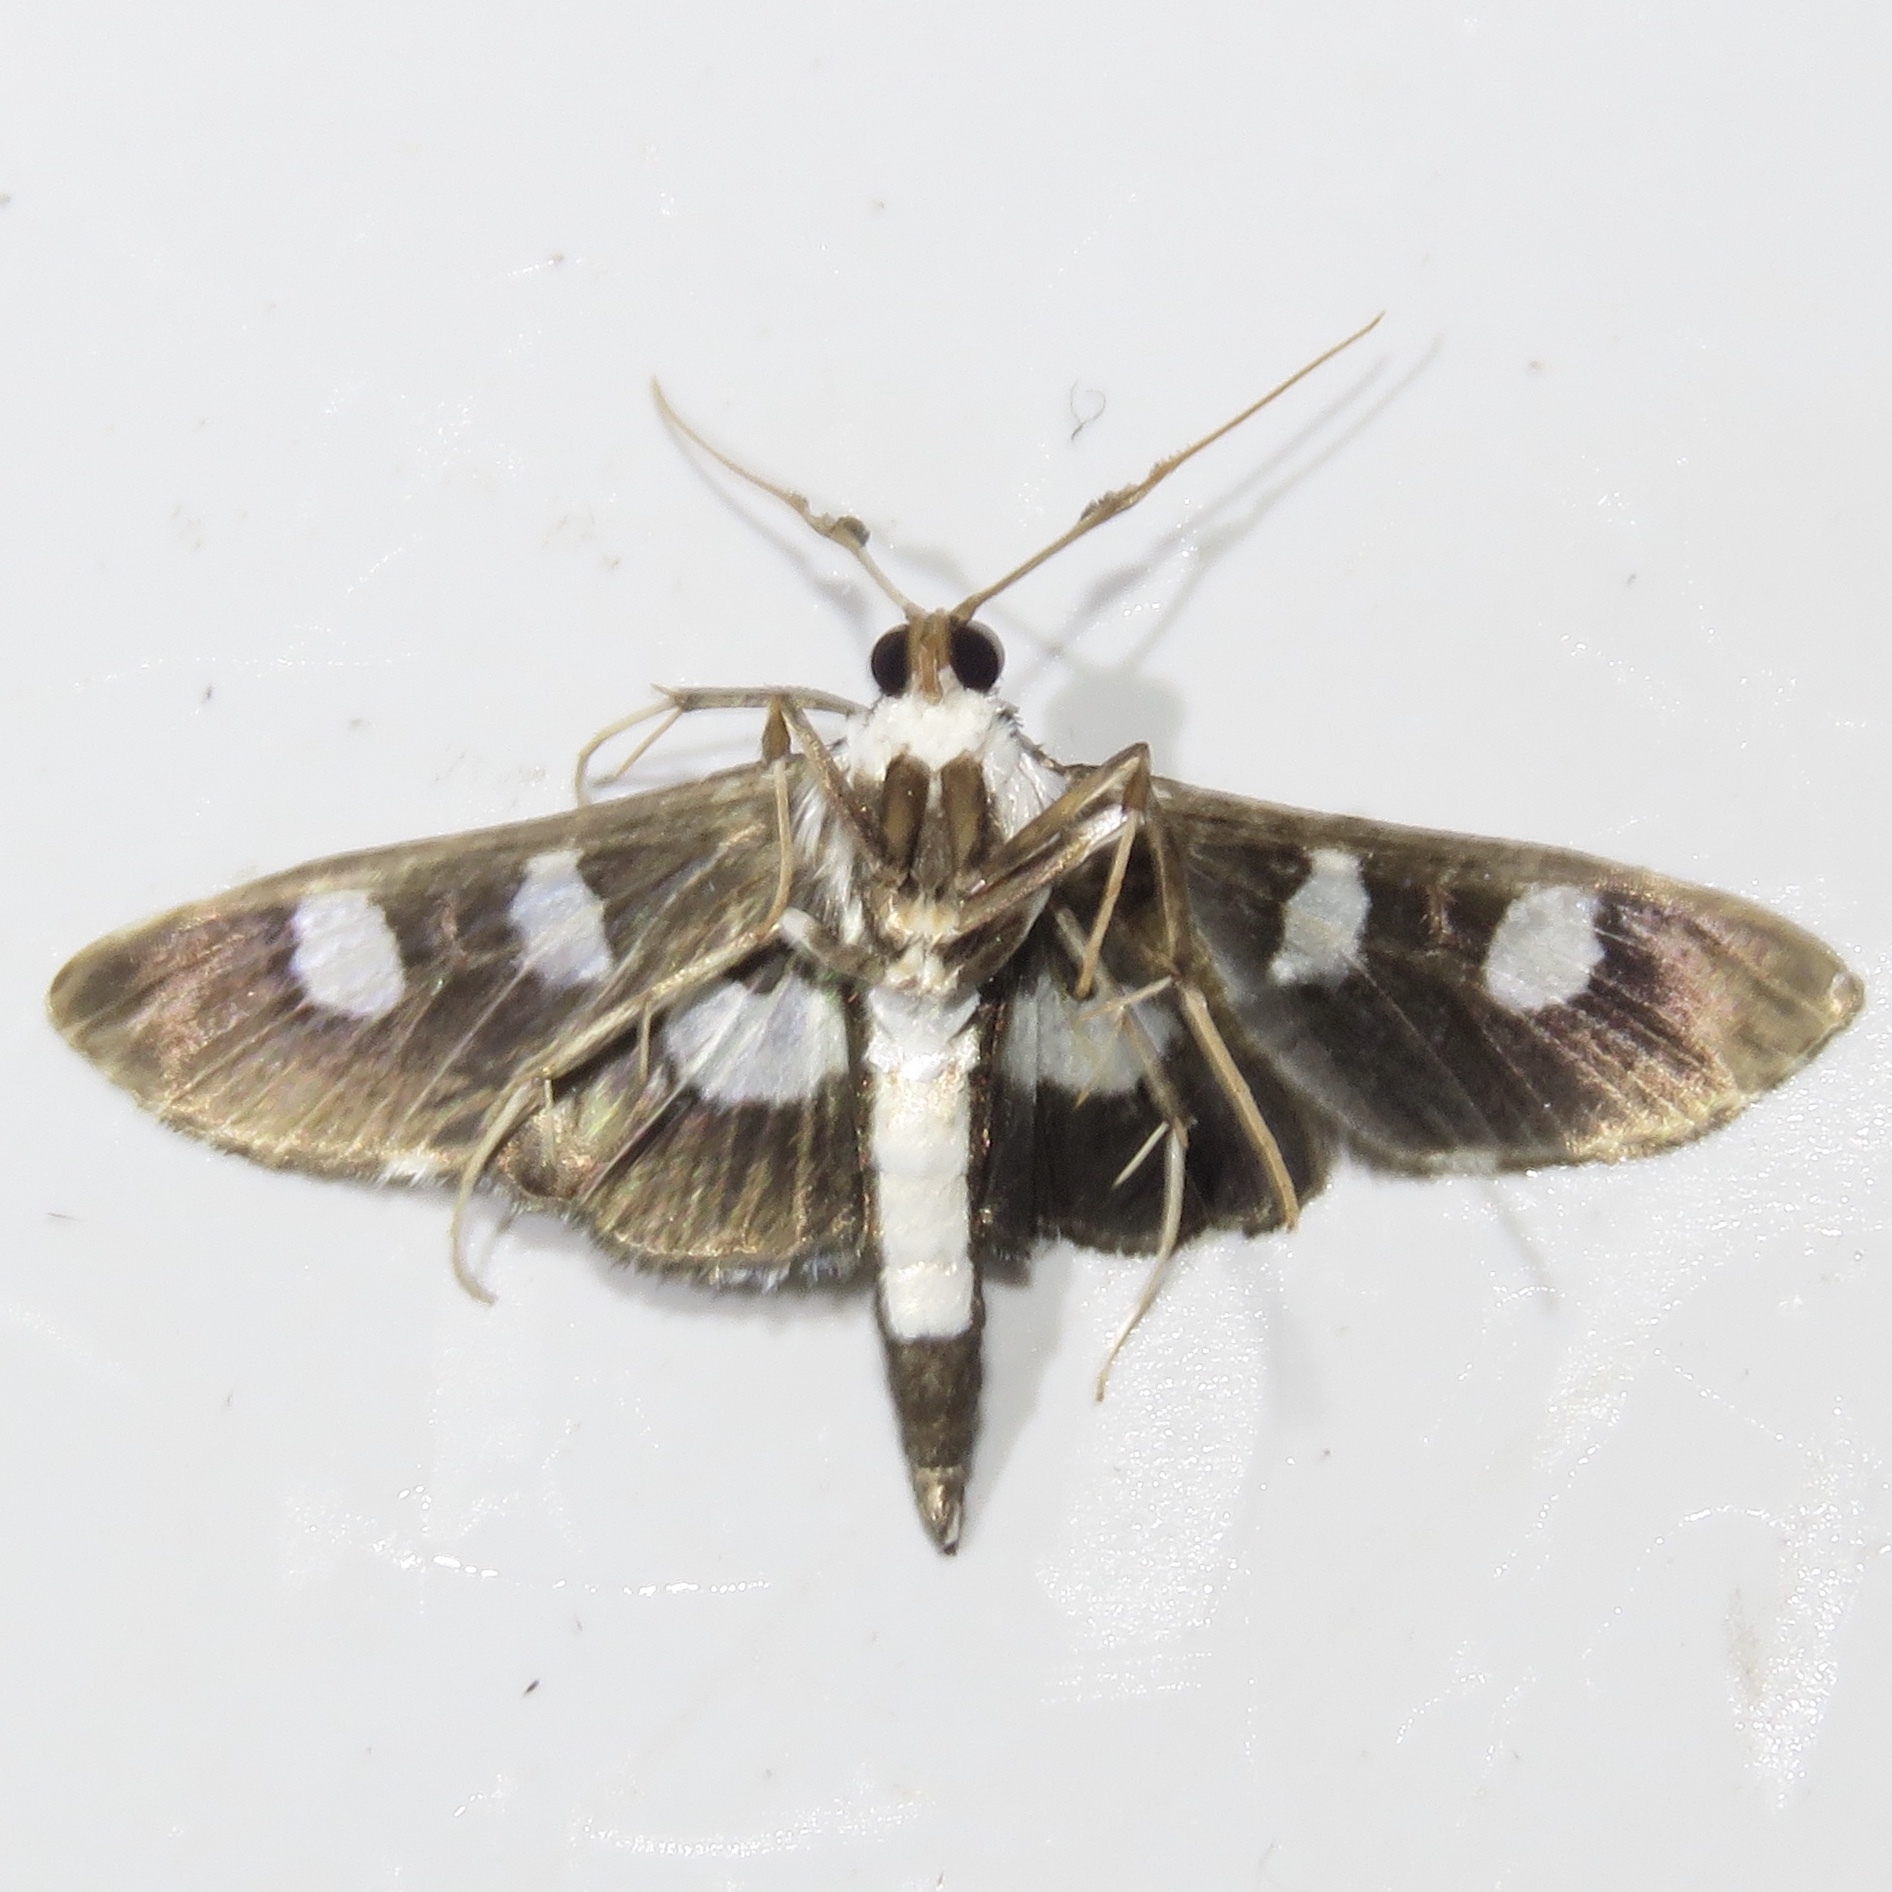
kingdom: Animalia
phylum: Arthropoda
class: Insecta
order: Lepidoptera
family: Crambidae
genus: Desmia
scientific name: Desmia funeralis
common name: Grape leaf folder moth
